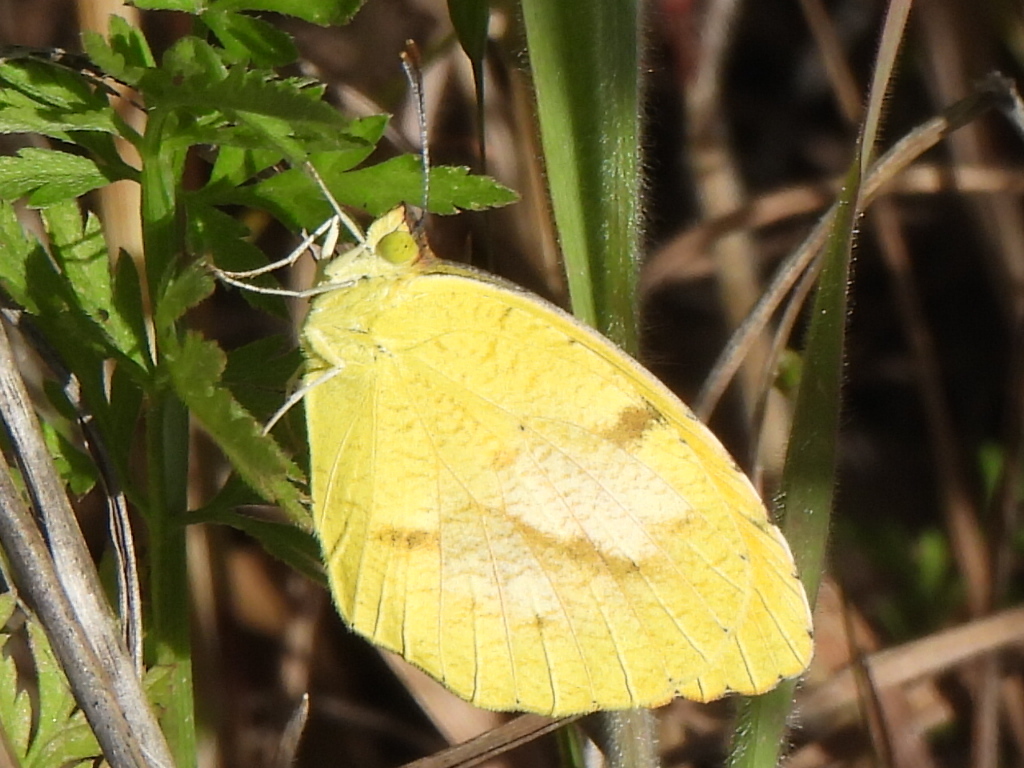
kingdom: Animalia
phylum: Arthropoda
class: Insecta
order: Lepidoptera
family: Pieridae
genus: Abaeis
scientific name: Abaeis nicippe
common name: Sleepy orange
